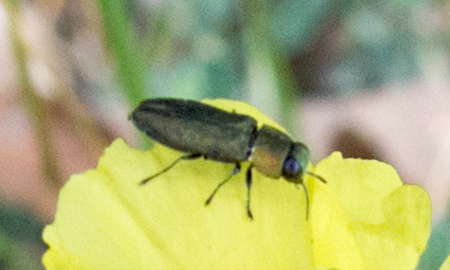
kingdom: Animalia
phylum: Arthropoda
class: Insecta
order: Coleoptera
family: Buprestidae
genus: Anthaxia
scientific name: Anthaxia nitidula
